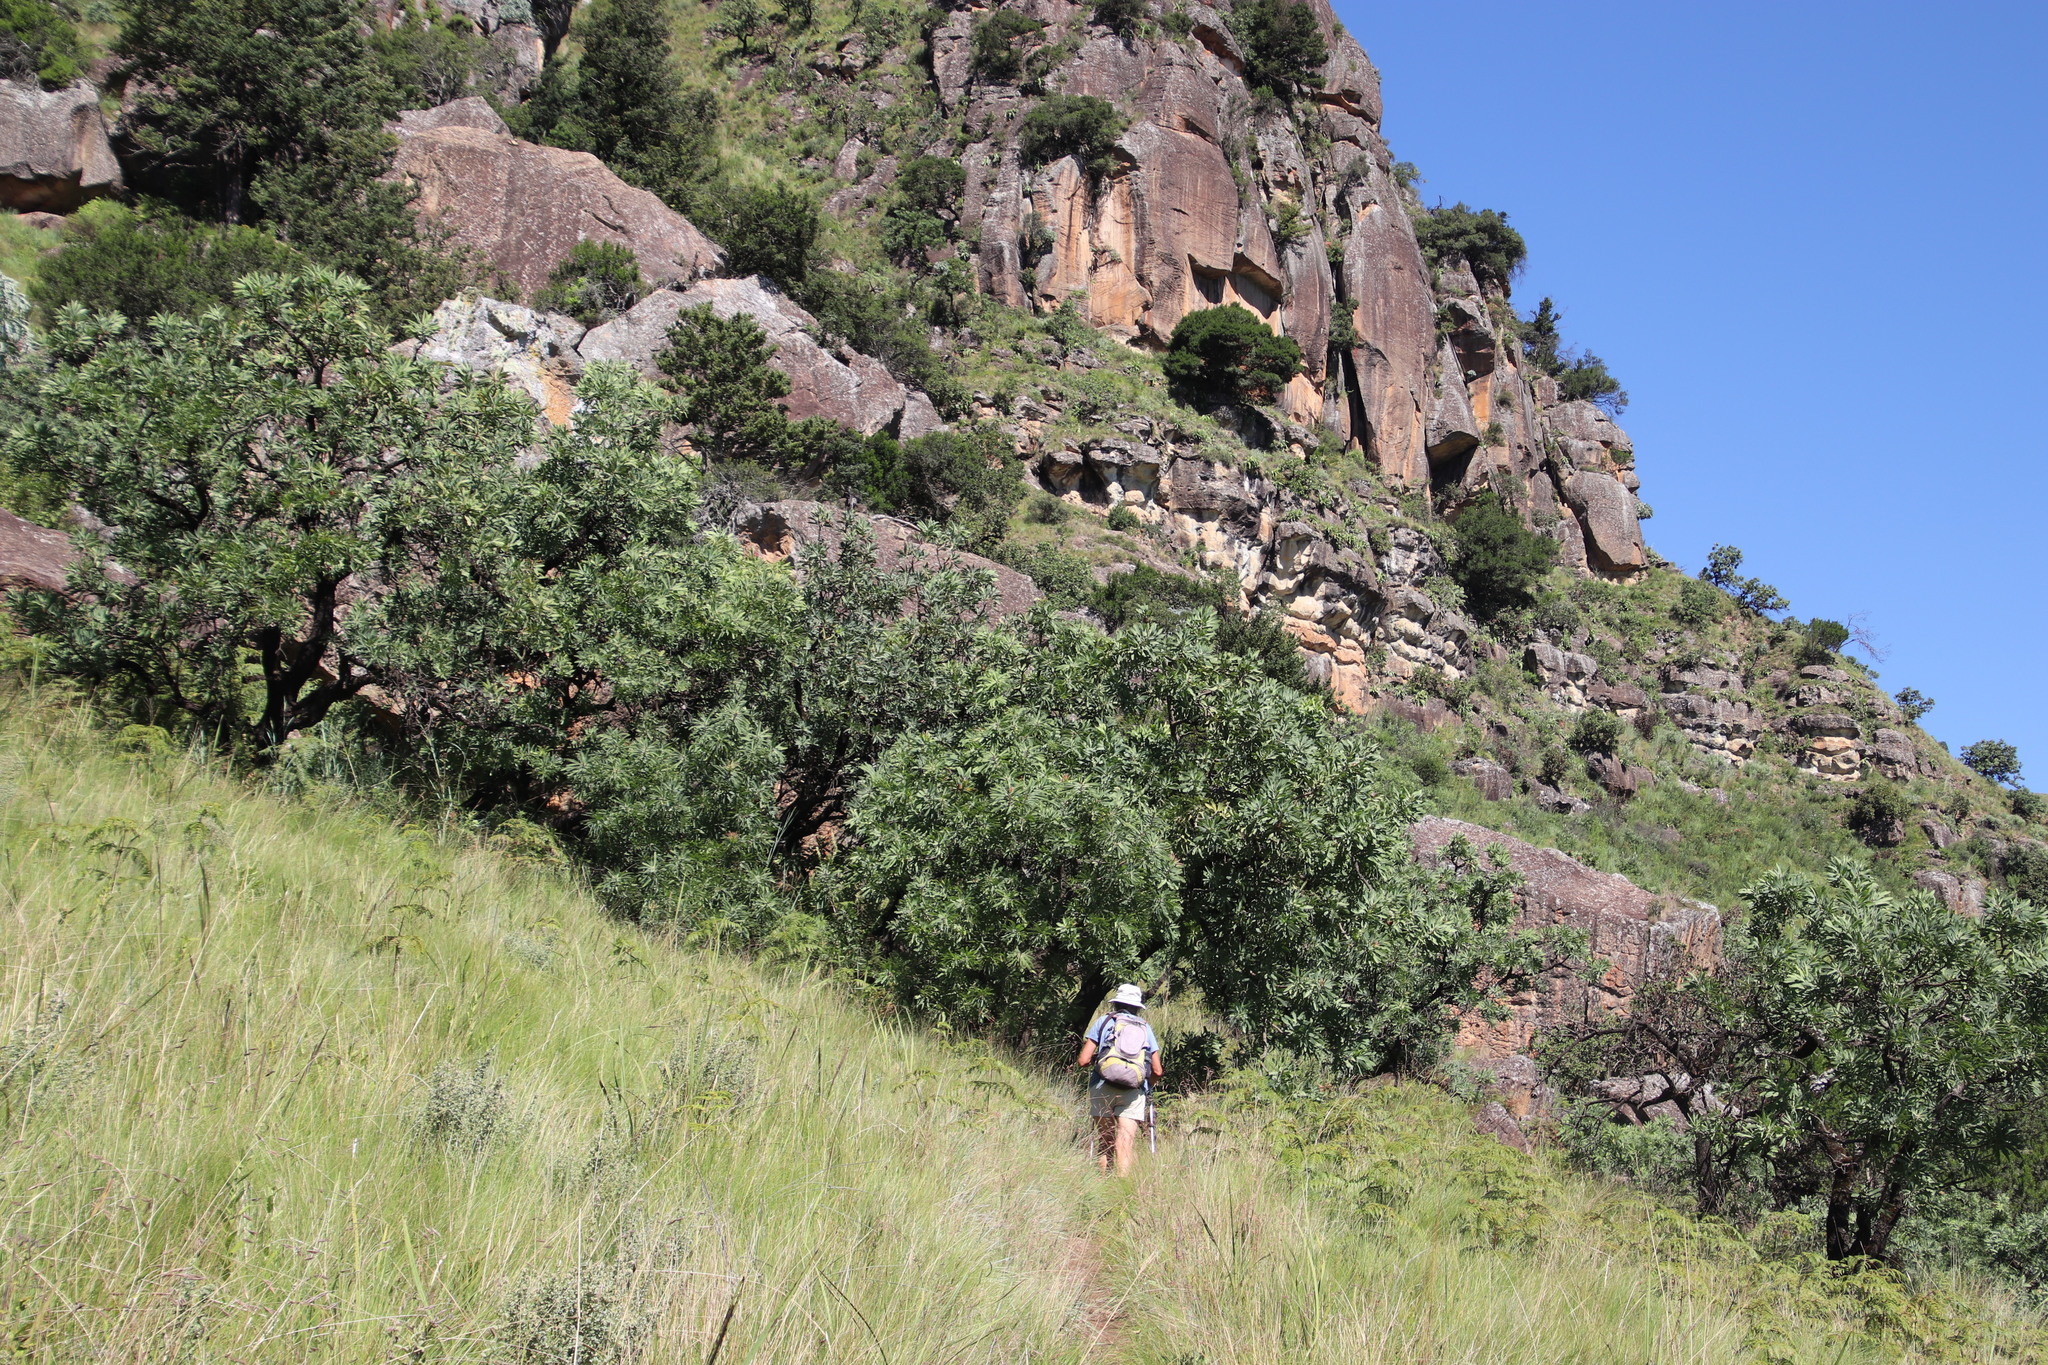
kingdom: Plantae
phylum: Tracheophyta
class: Magnoliopsida
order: Proteales
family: Proteaceae
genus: Protea
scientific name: Protea caffra
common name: Common sugarbush
